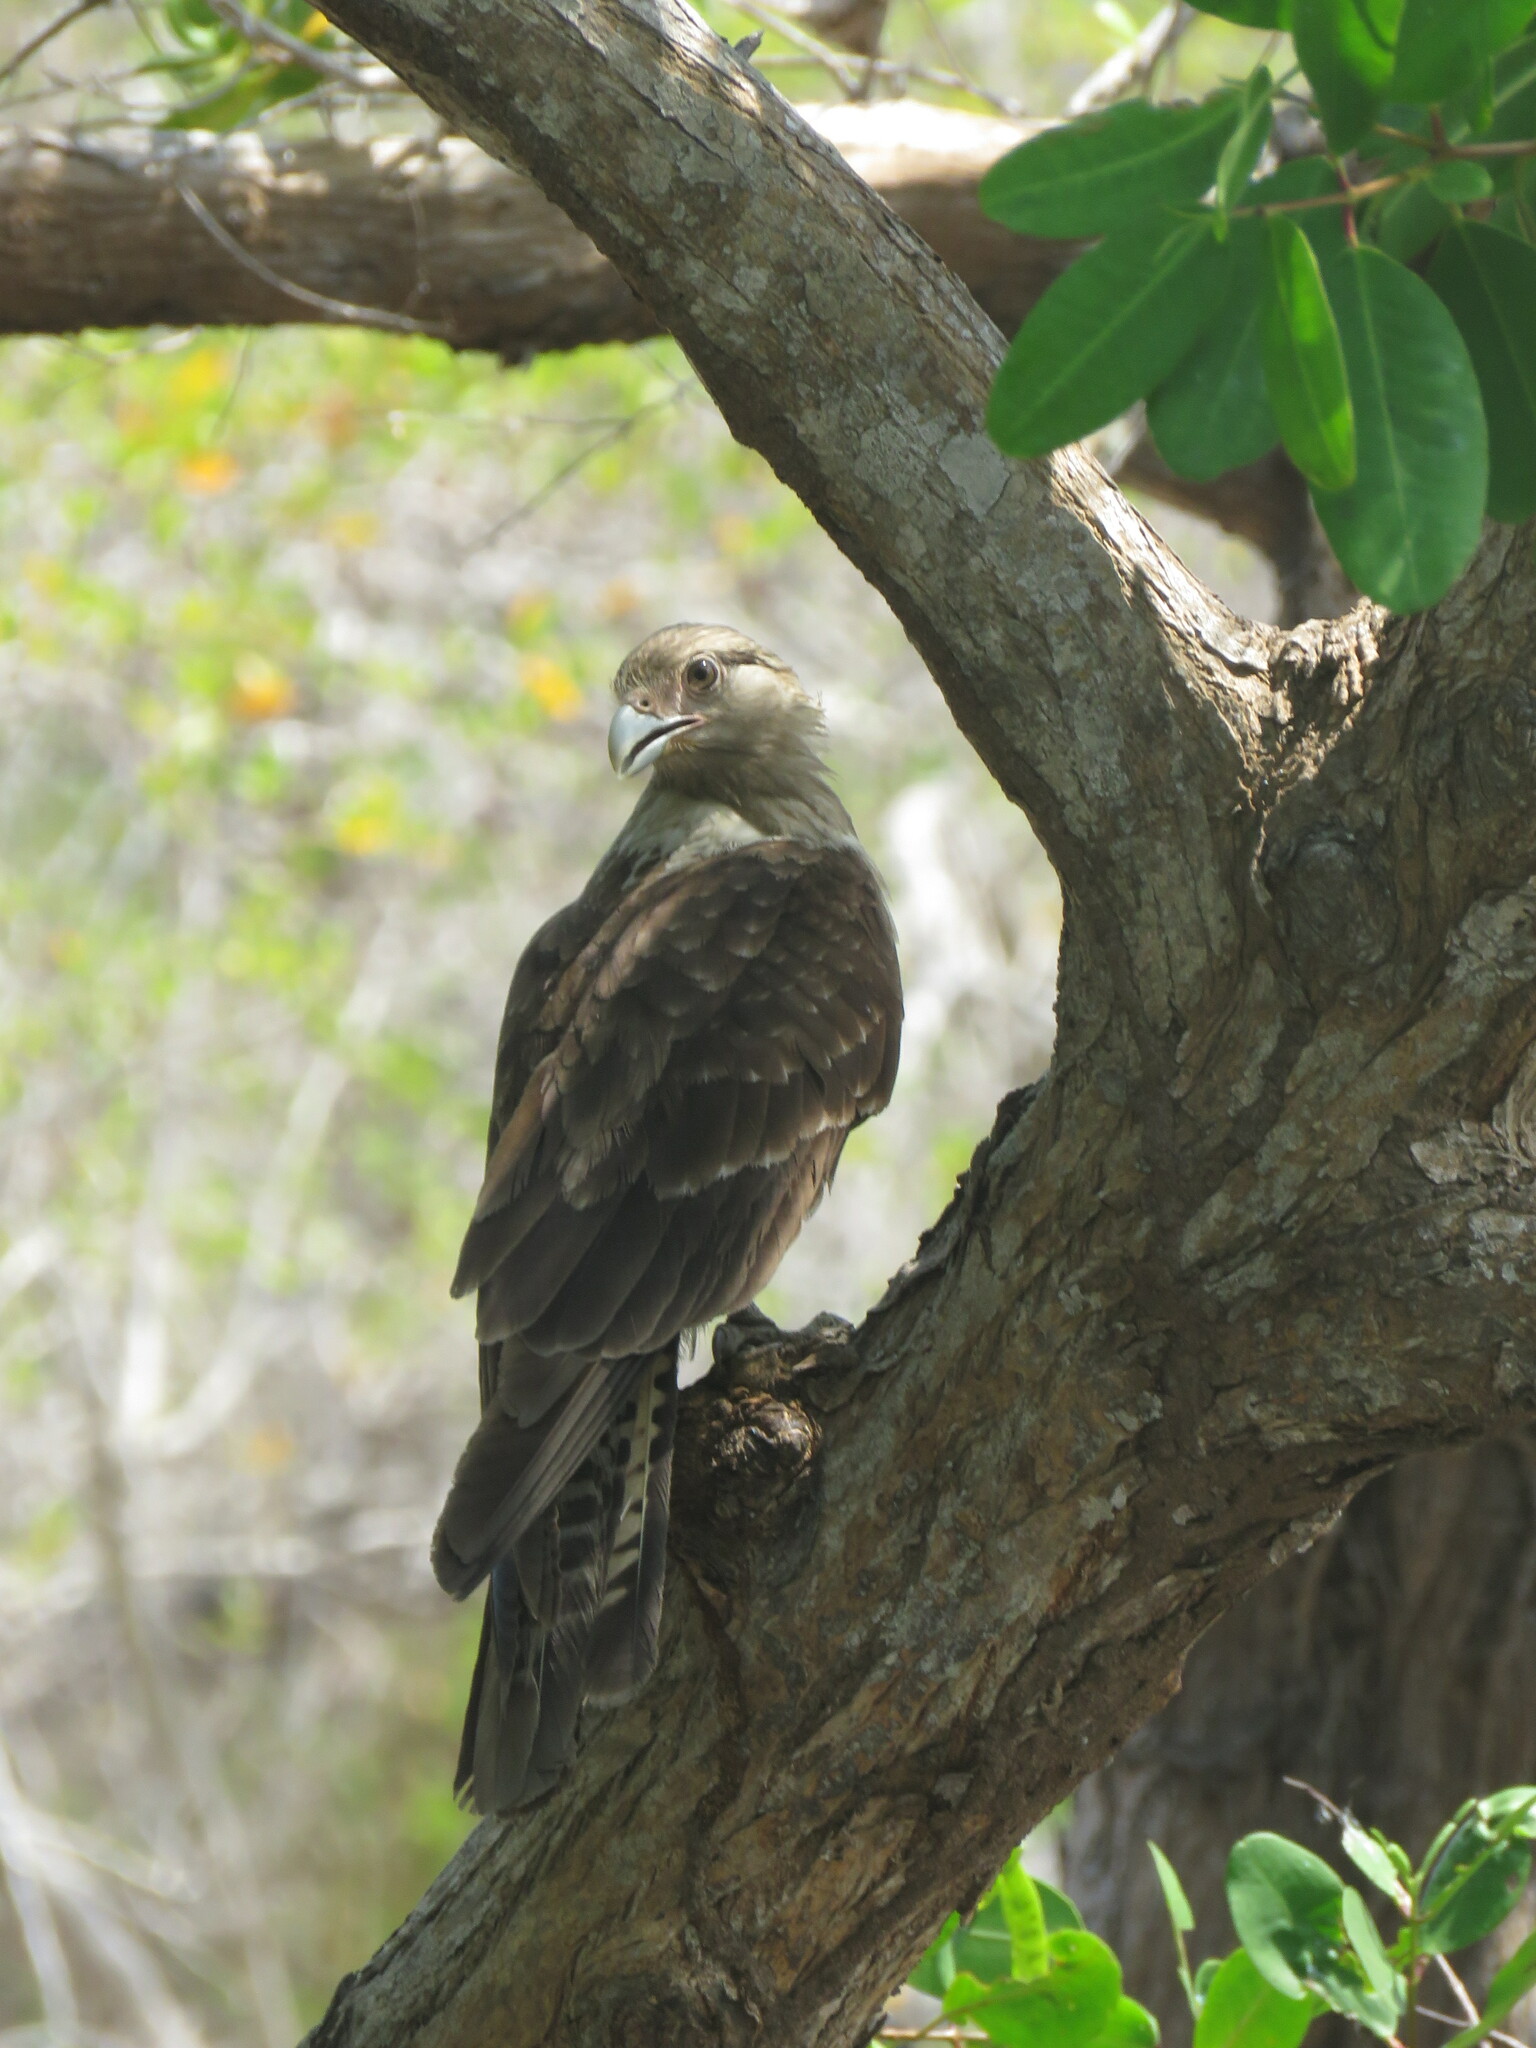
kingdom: Animalia
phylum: Chordata
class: Aves
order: Falconiformes
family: Falconidae
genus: Daptrius
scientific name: Daptrius
